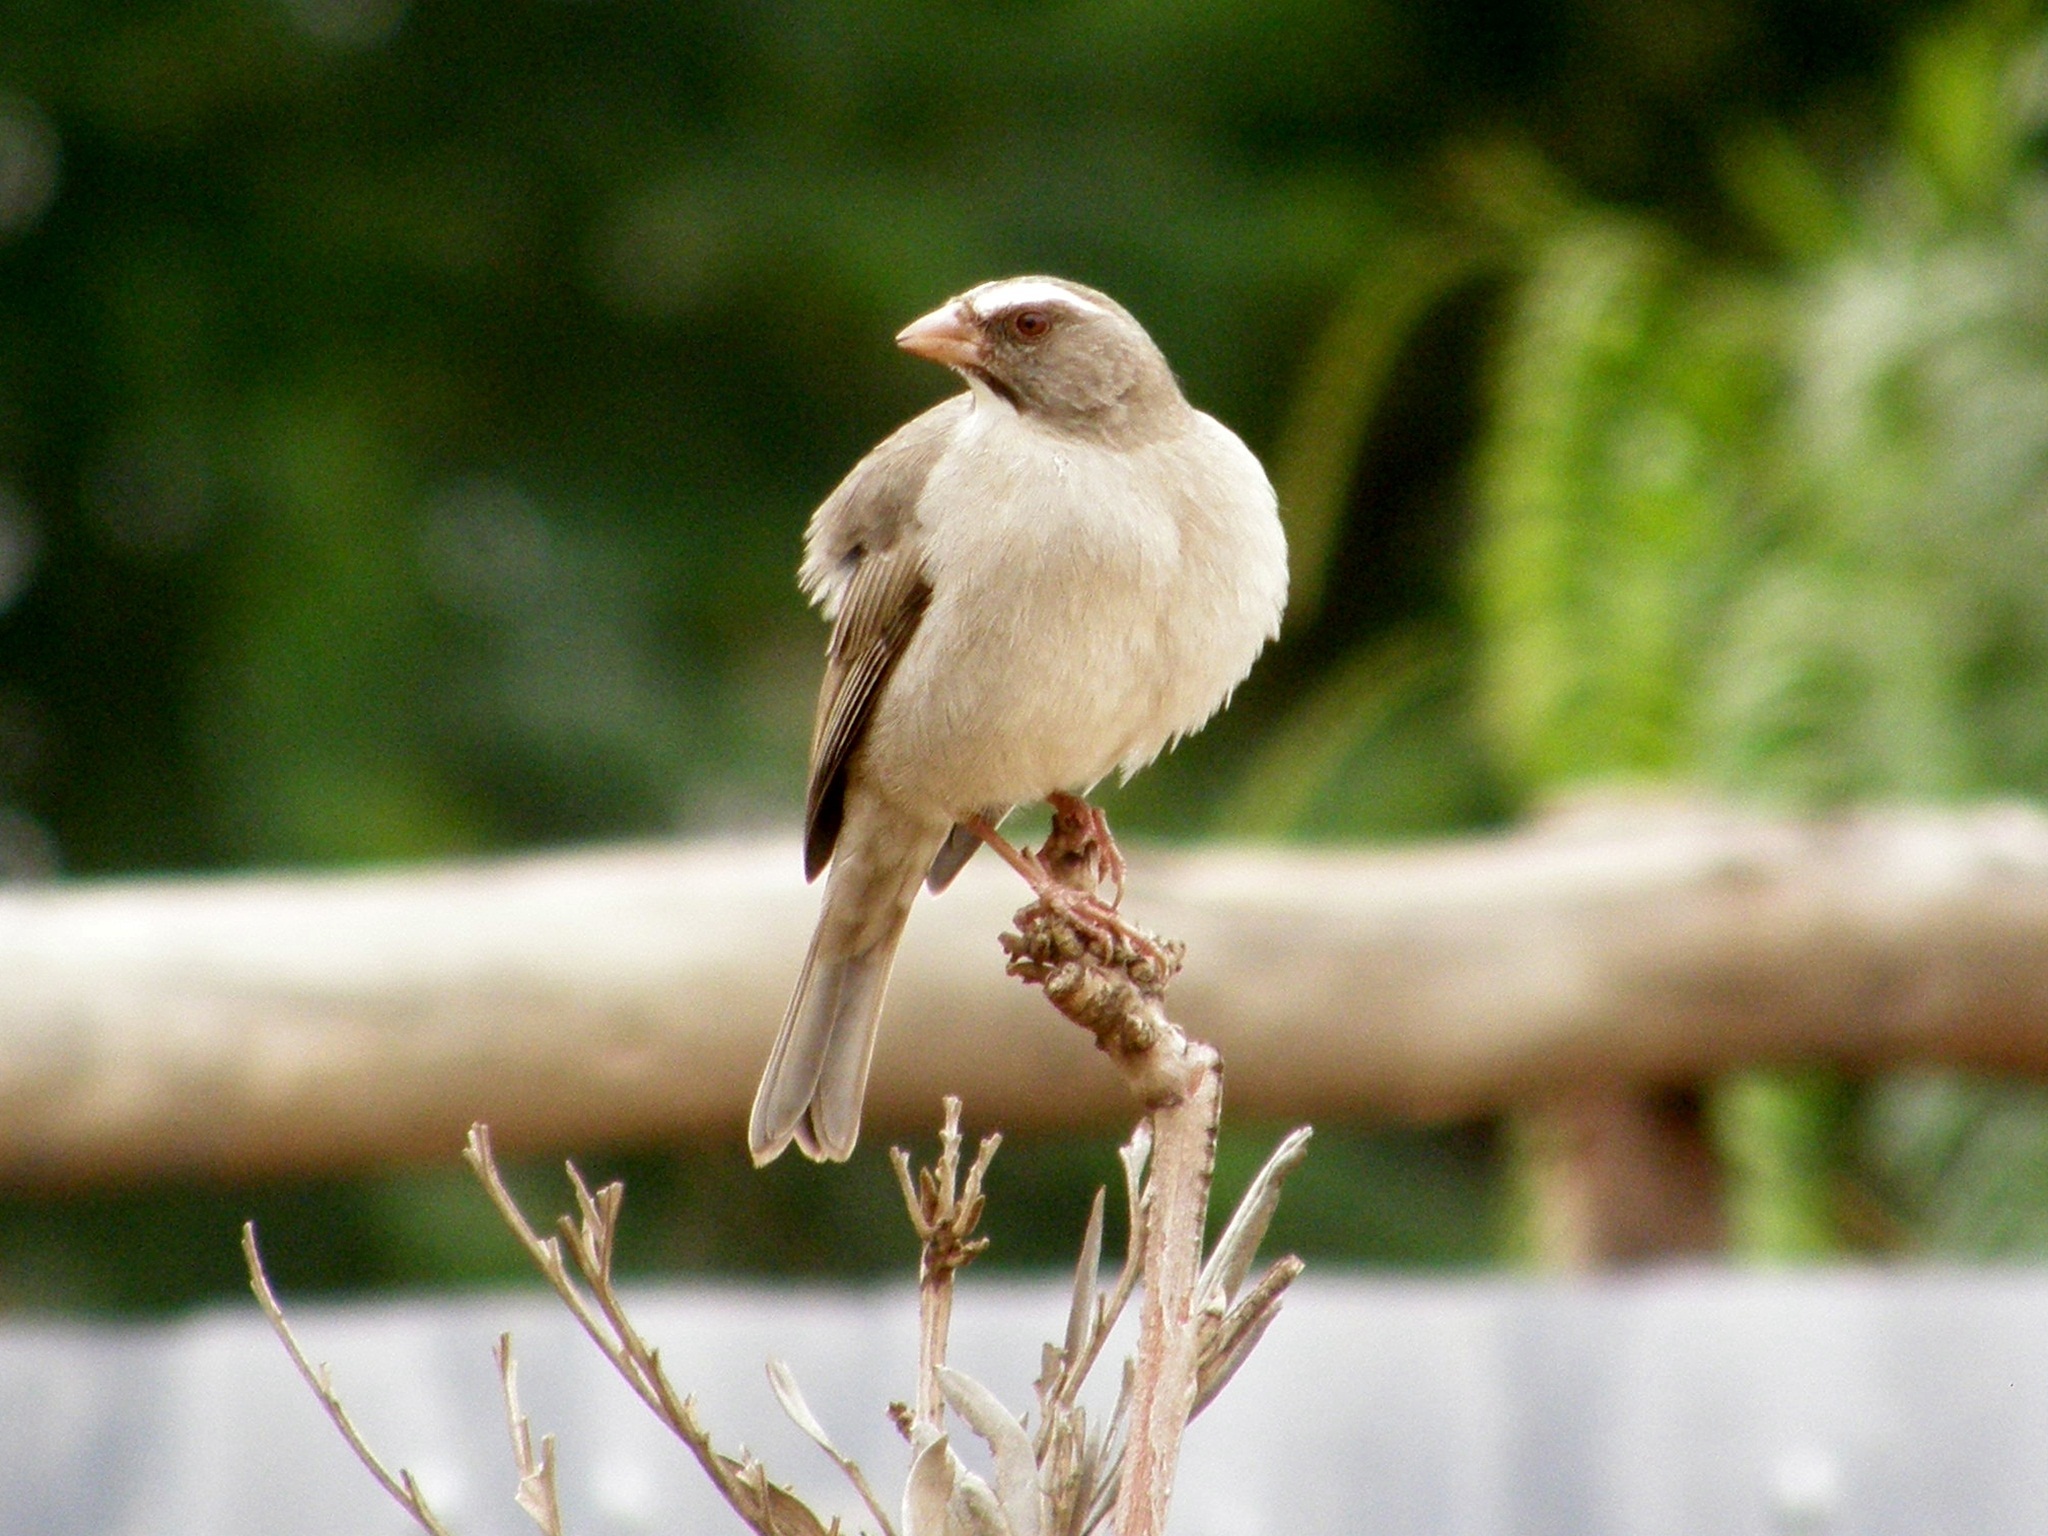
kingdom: Animalia
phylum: Chordata
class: Aves
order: Passeriformes
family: Fringillidae
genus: Crithagra
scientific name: Crithagra tristriata
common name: Brown-rumped seedeater
